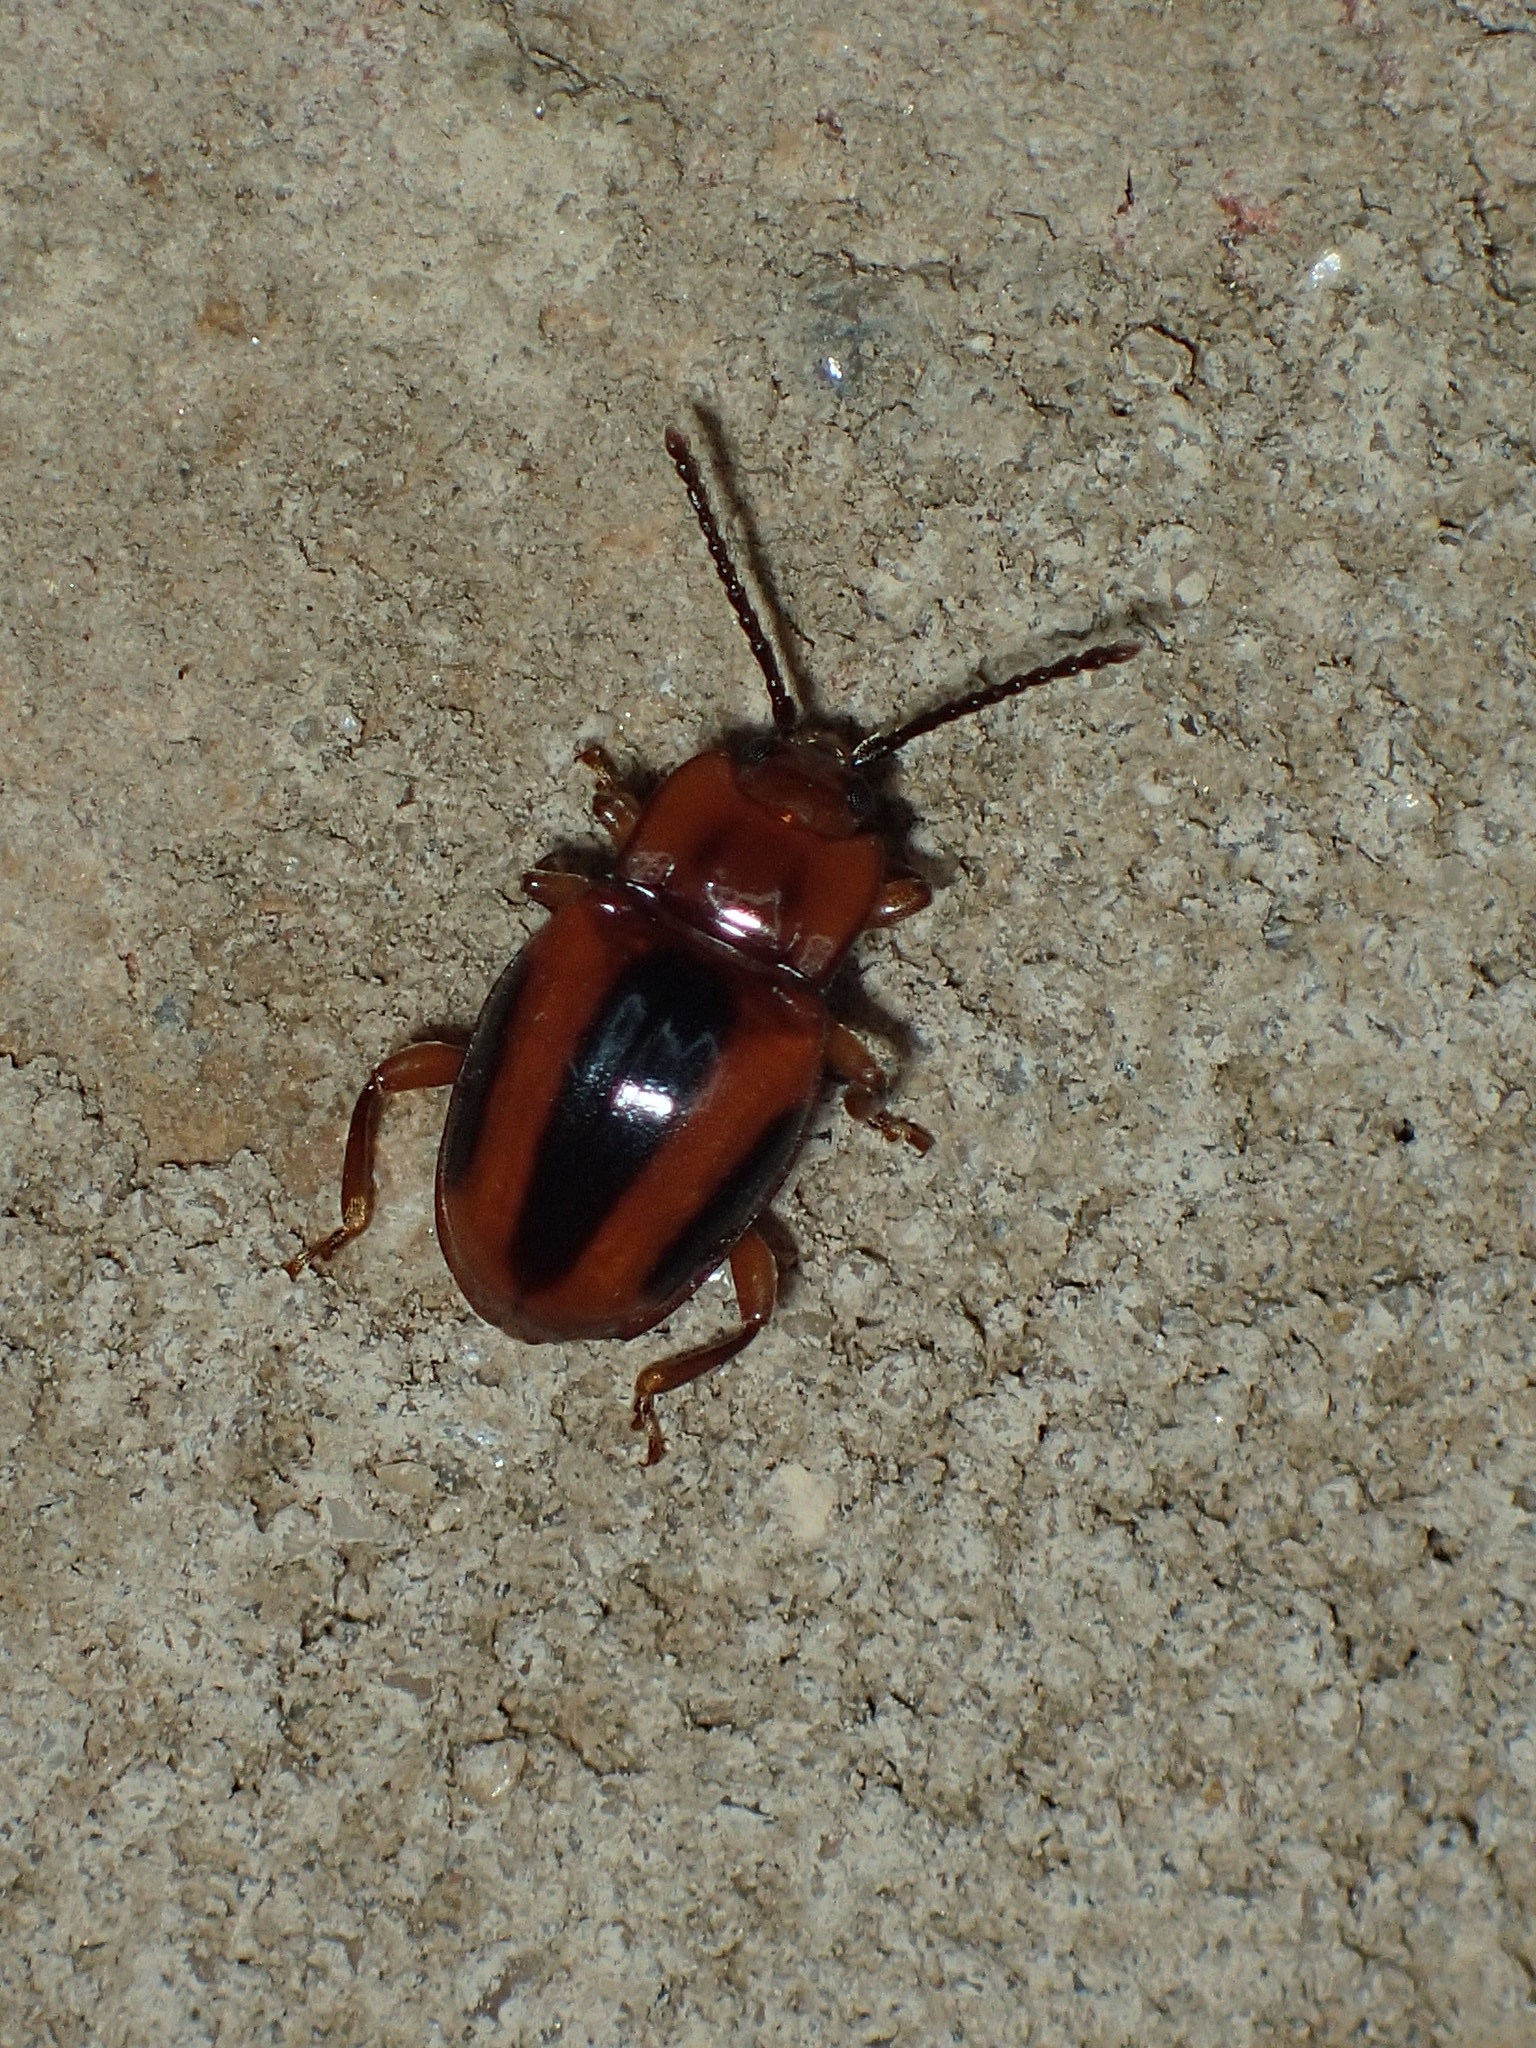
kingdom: Animalia
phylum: Arthropoda
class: Insecta
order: Coleoptera
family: Endomychidae
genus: Aphorista
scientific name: Aphorista vittata
